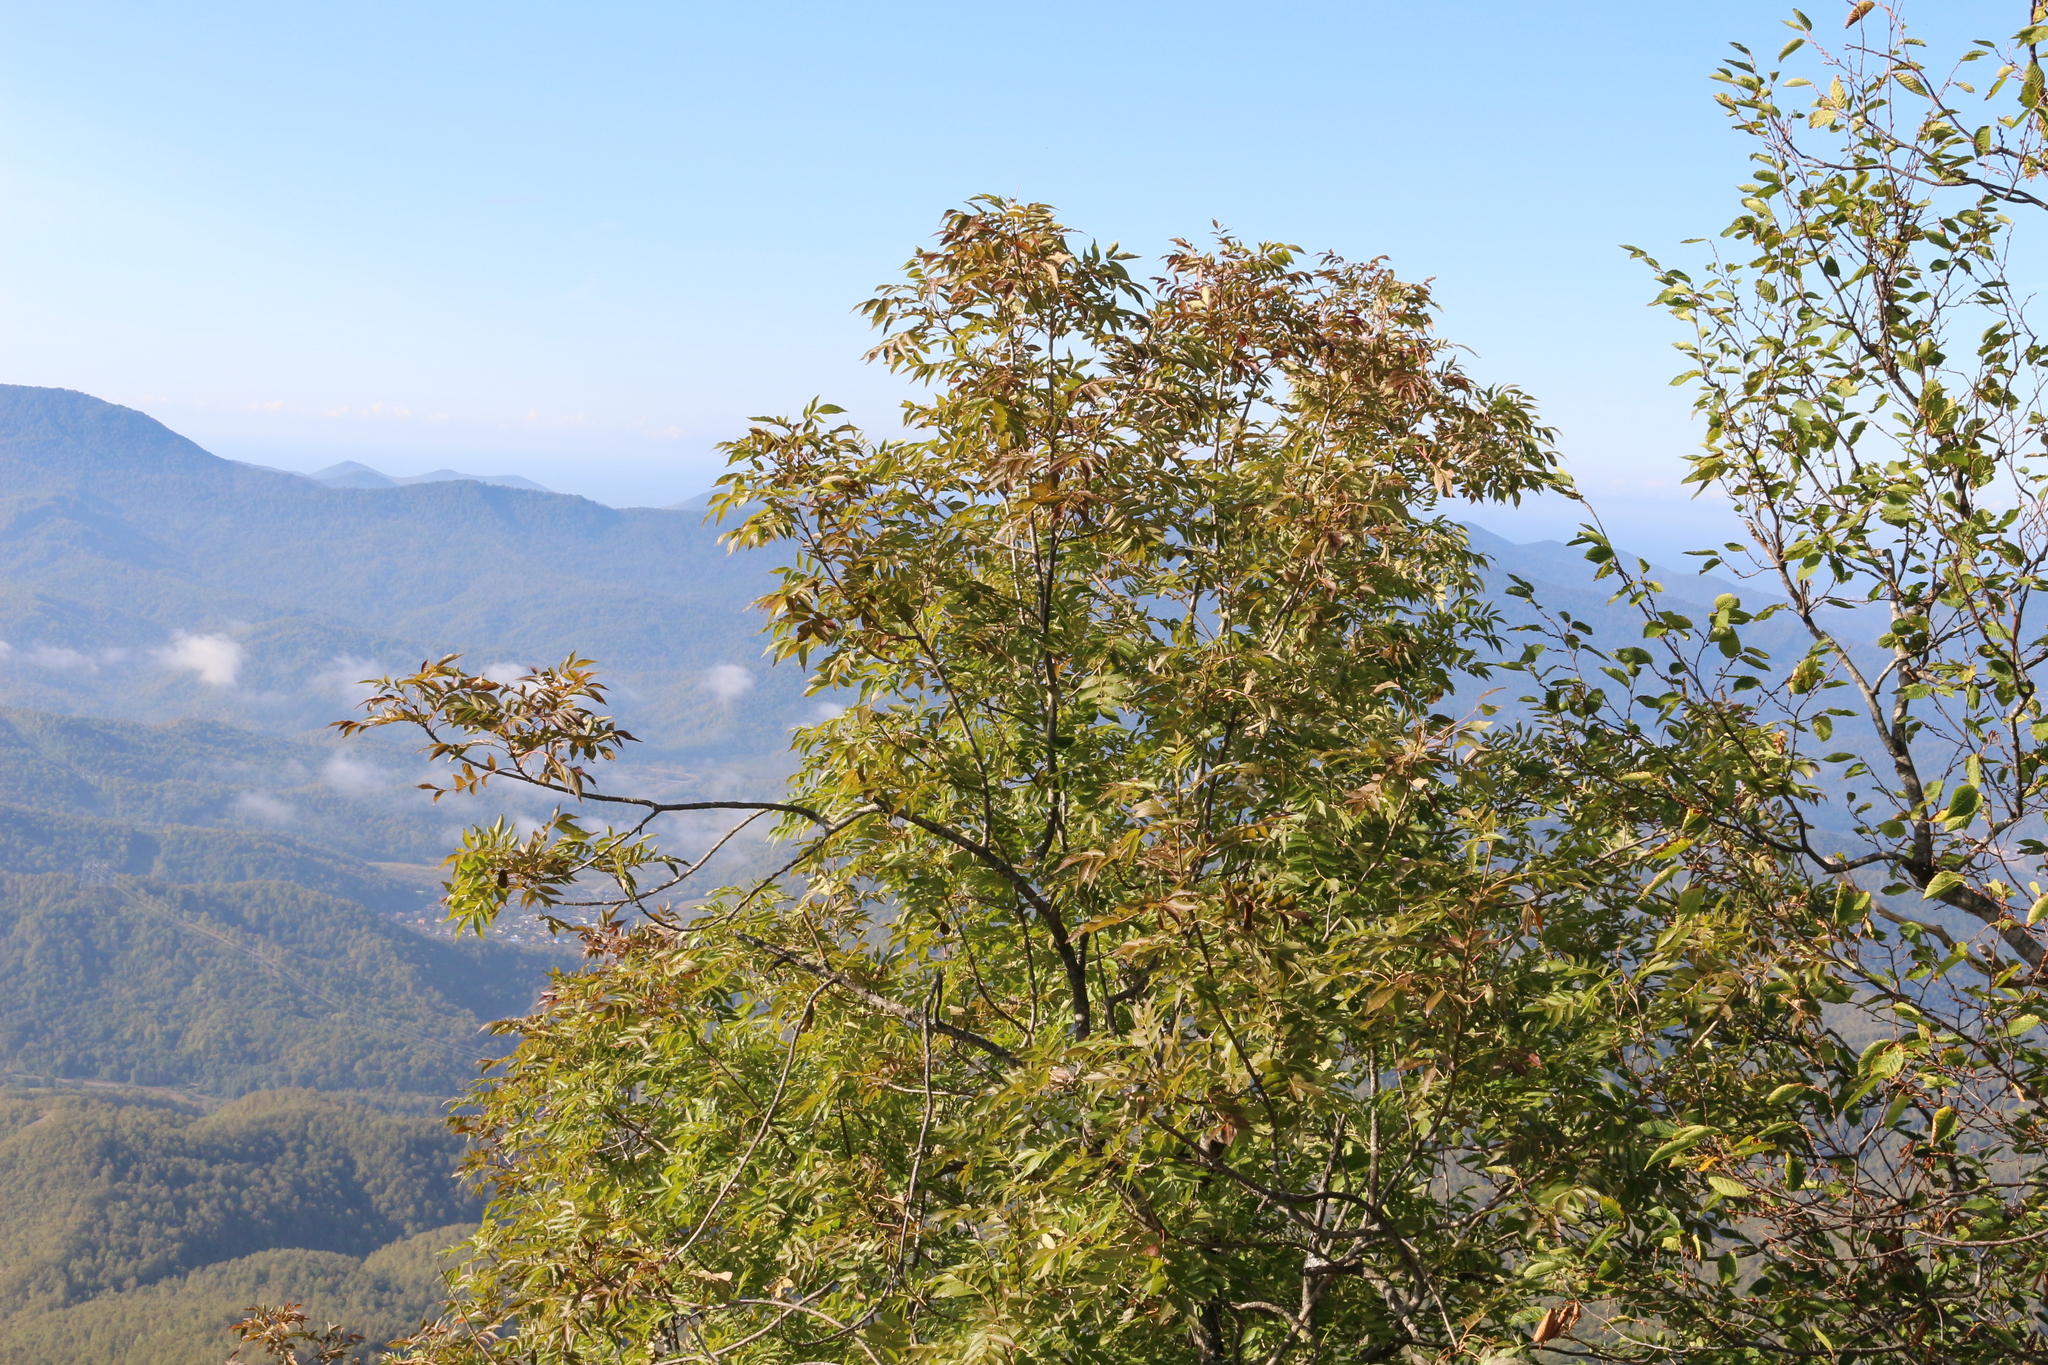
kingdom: Plantae
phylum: Tracheophyta
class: Magnoliopsida
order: Lamiales
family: Oleaceae
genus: Fraxinus
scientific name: Fraxinus excelsior
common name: European ash
